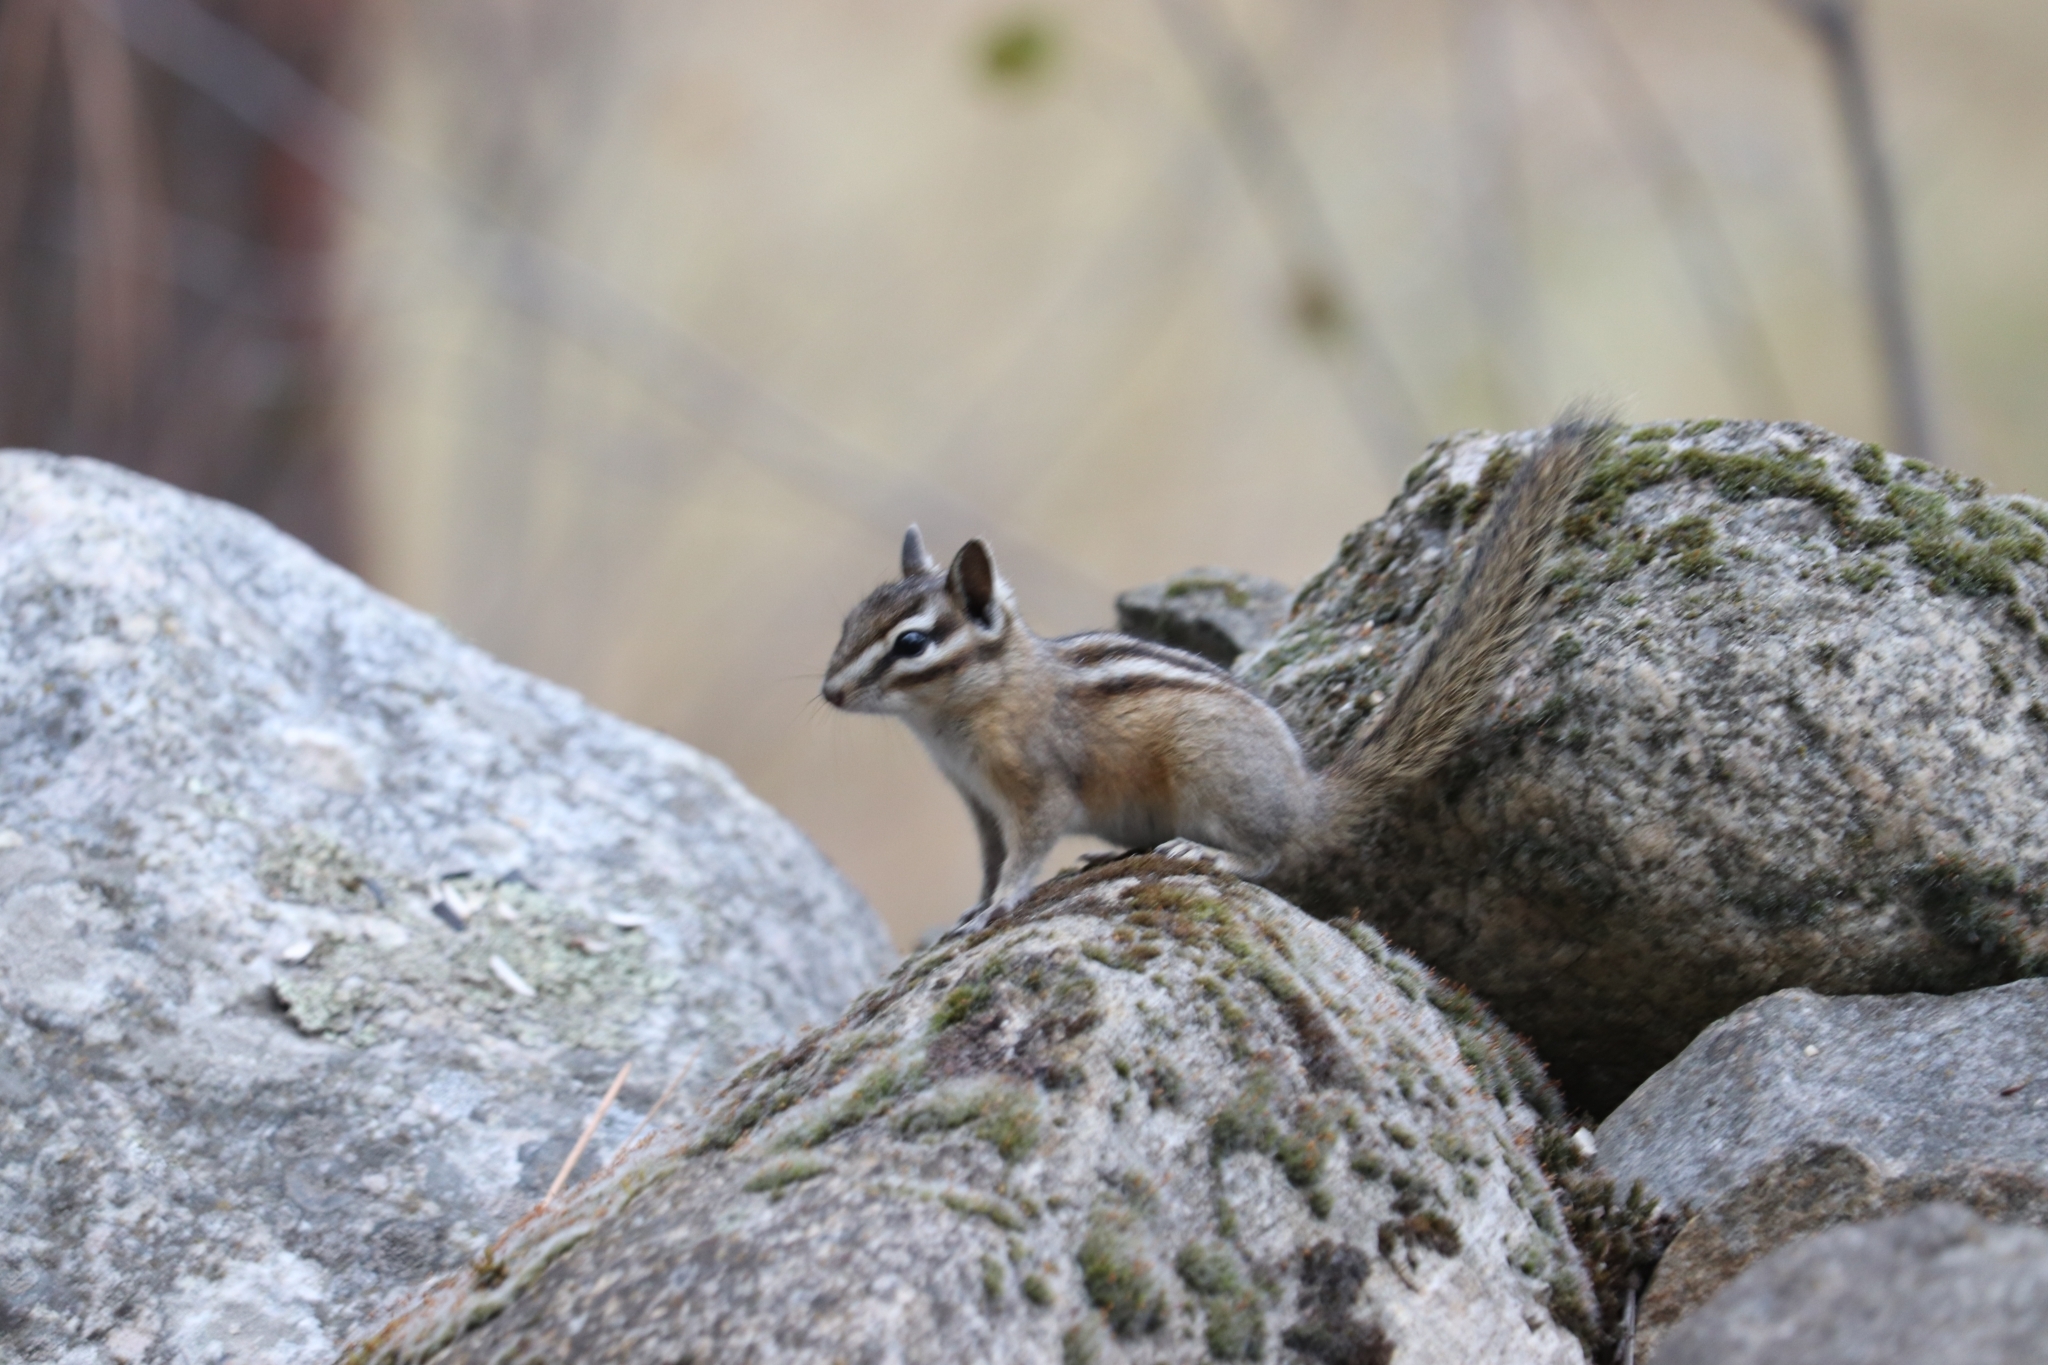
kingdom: Animalia
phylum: Chordata
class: Mammalia
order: Rodentia
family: Sciuridae
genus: Tamias
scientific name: Tamias amoenus
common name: Yellow-pine chipmunk
